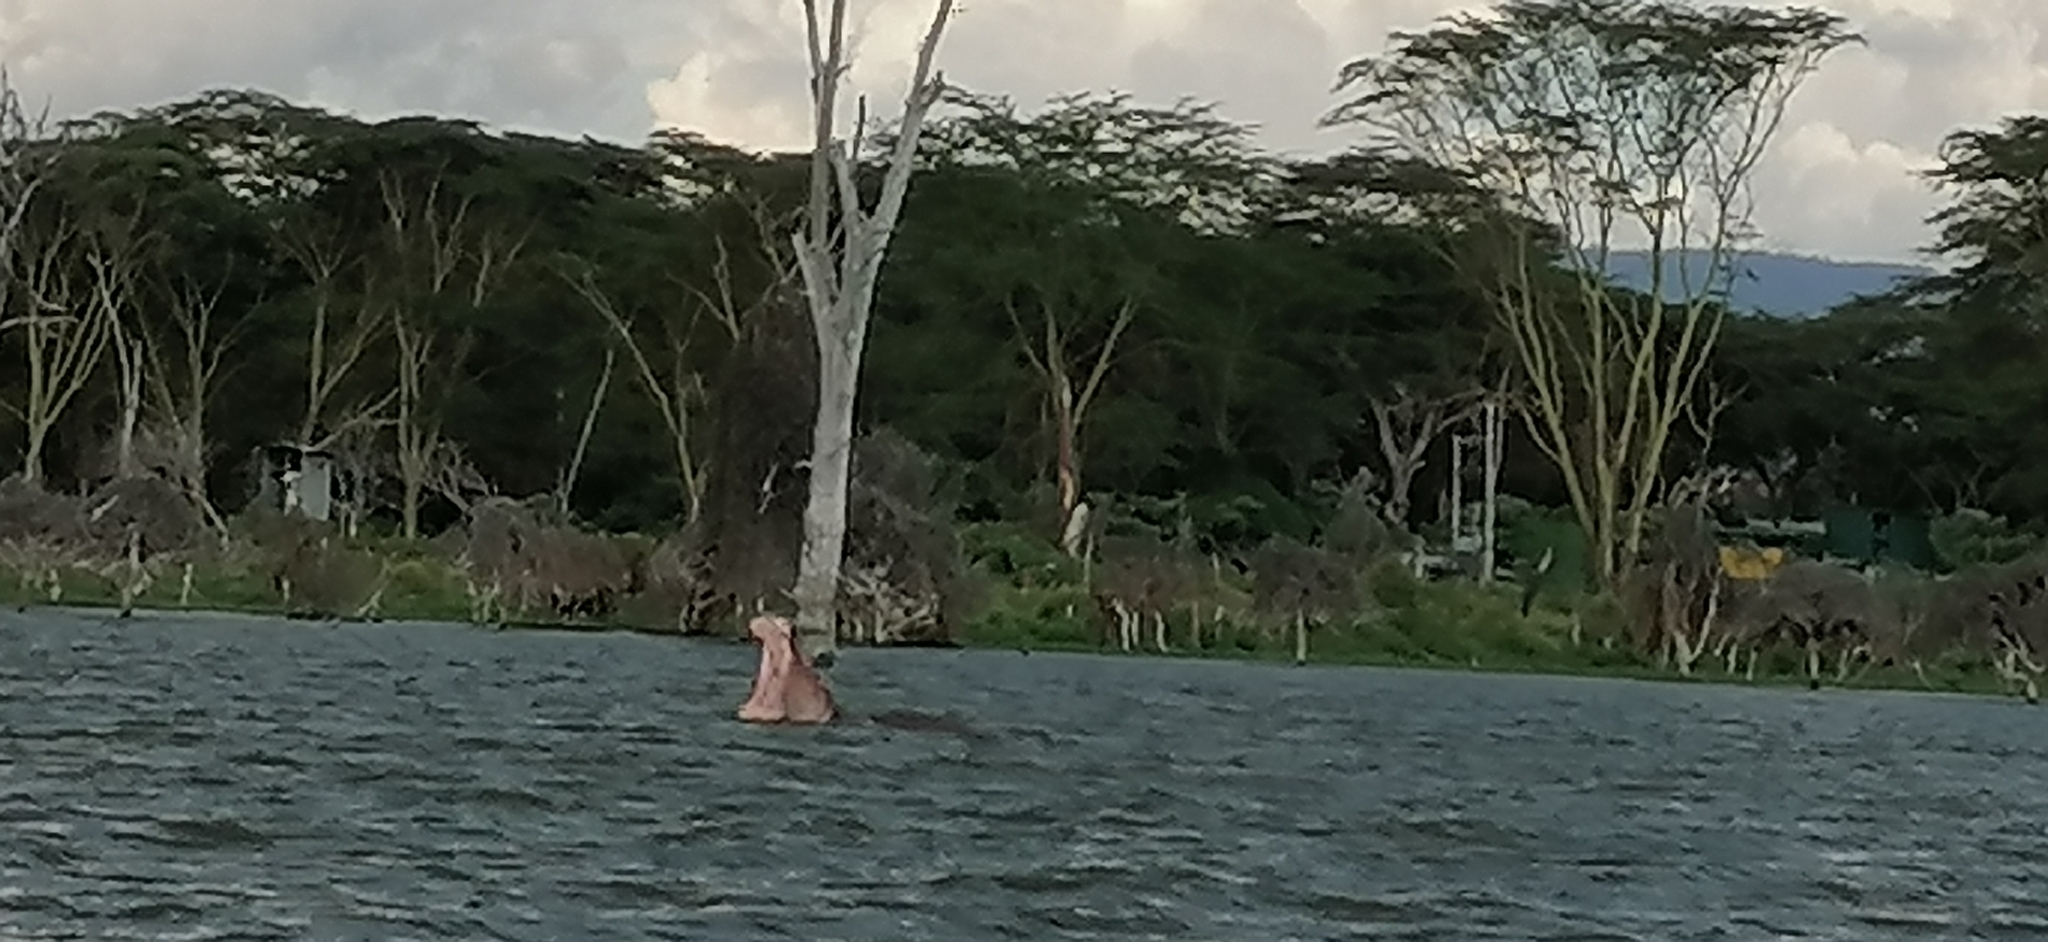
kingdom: Animalia
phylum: Chordata
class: Mammalia
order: Artiodactyla
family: Hippopotamidae
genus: Hippopotamus
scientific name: Hippopotamus amphibius
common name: Common hippopotamus
